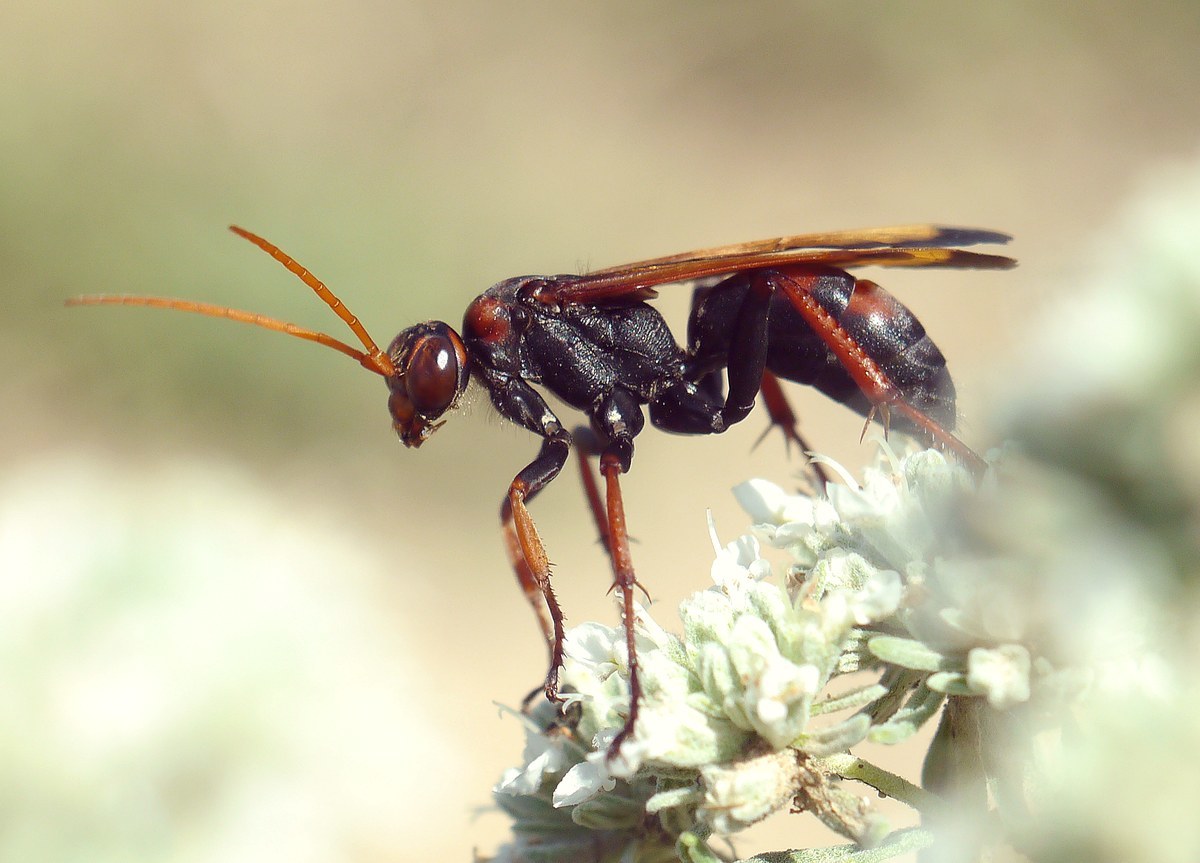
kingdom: Animalia
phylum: Arthropoda
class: Insecta
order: Hymenoptera
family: Pompilidae
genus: Cryptocheilus
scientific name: Cryptocheilus rubellus
